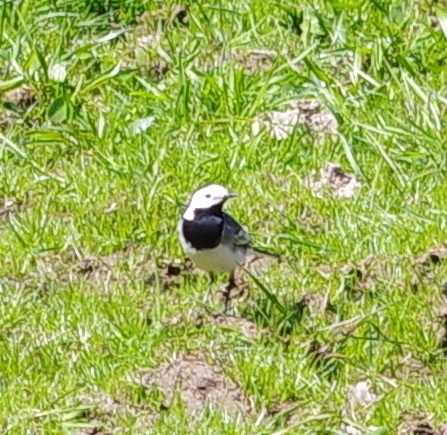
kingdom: Animalia
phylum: Chordata
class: Aves
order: Passeriformes
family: Motacillidae
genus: Motacilla
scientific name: Motacilla alba
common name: White wagtail
